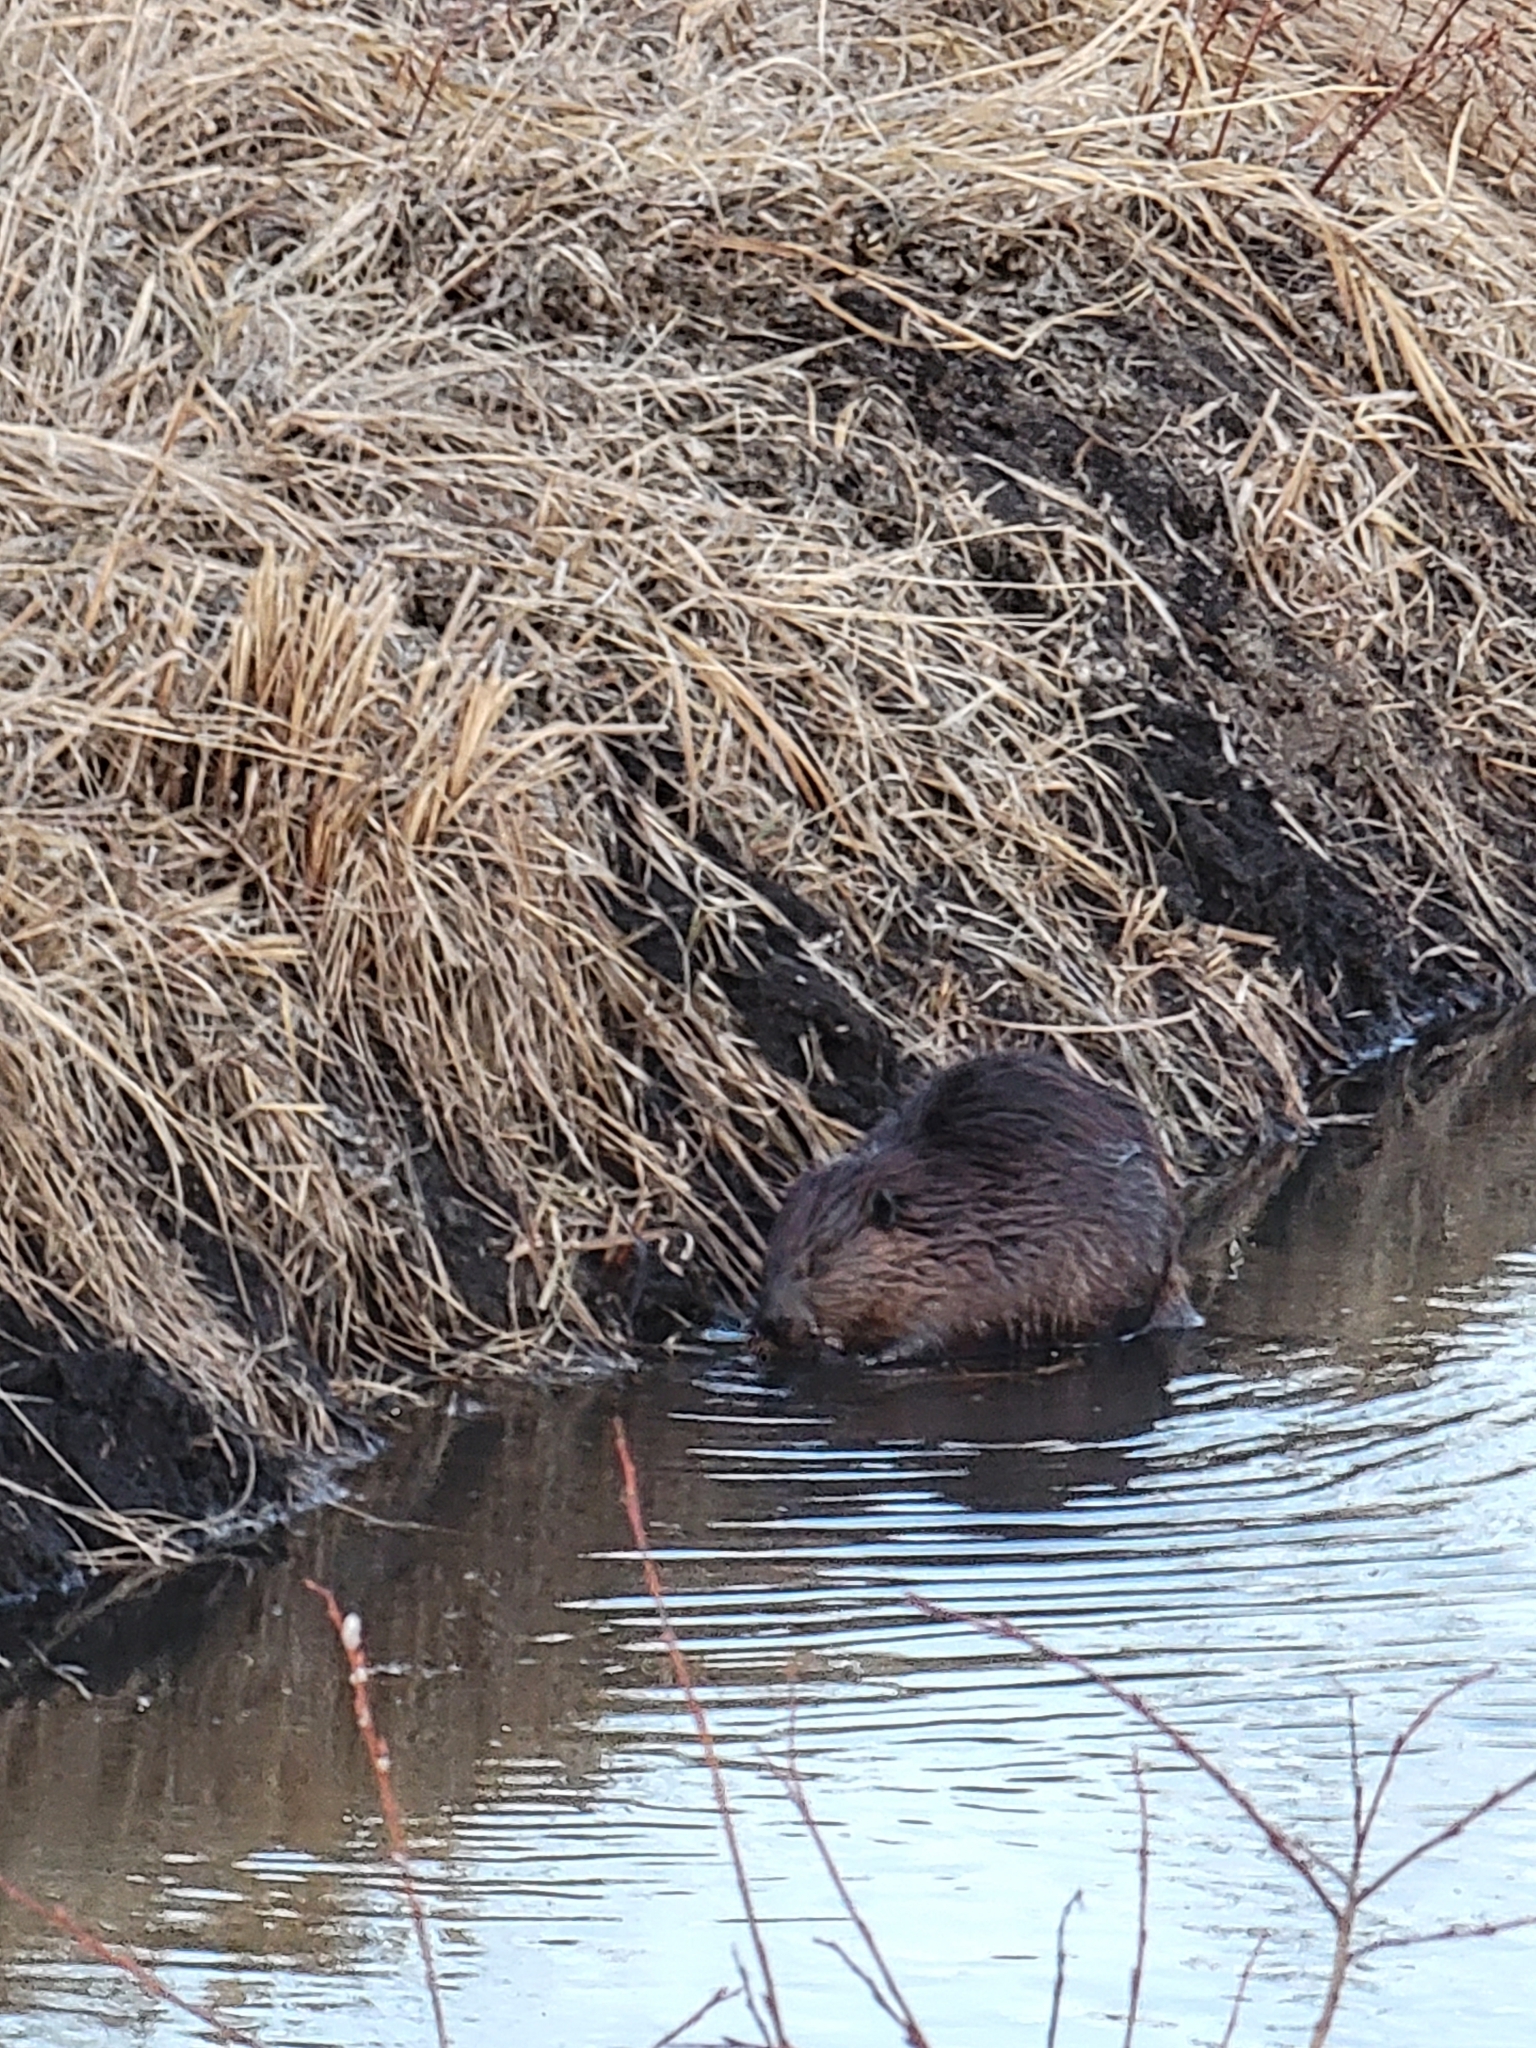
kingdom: Animalia
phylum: Chordata
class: Mammalia
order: Rodentia
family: Castoridae
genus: Castor
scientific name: Castor canadensis
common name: American beaver
